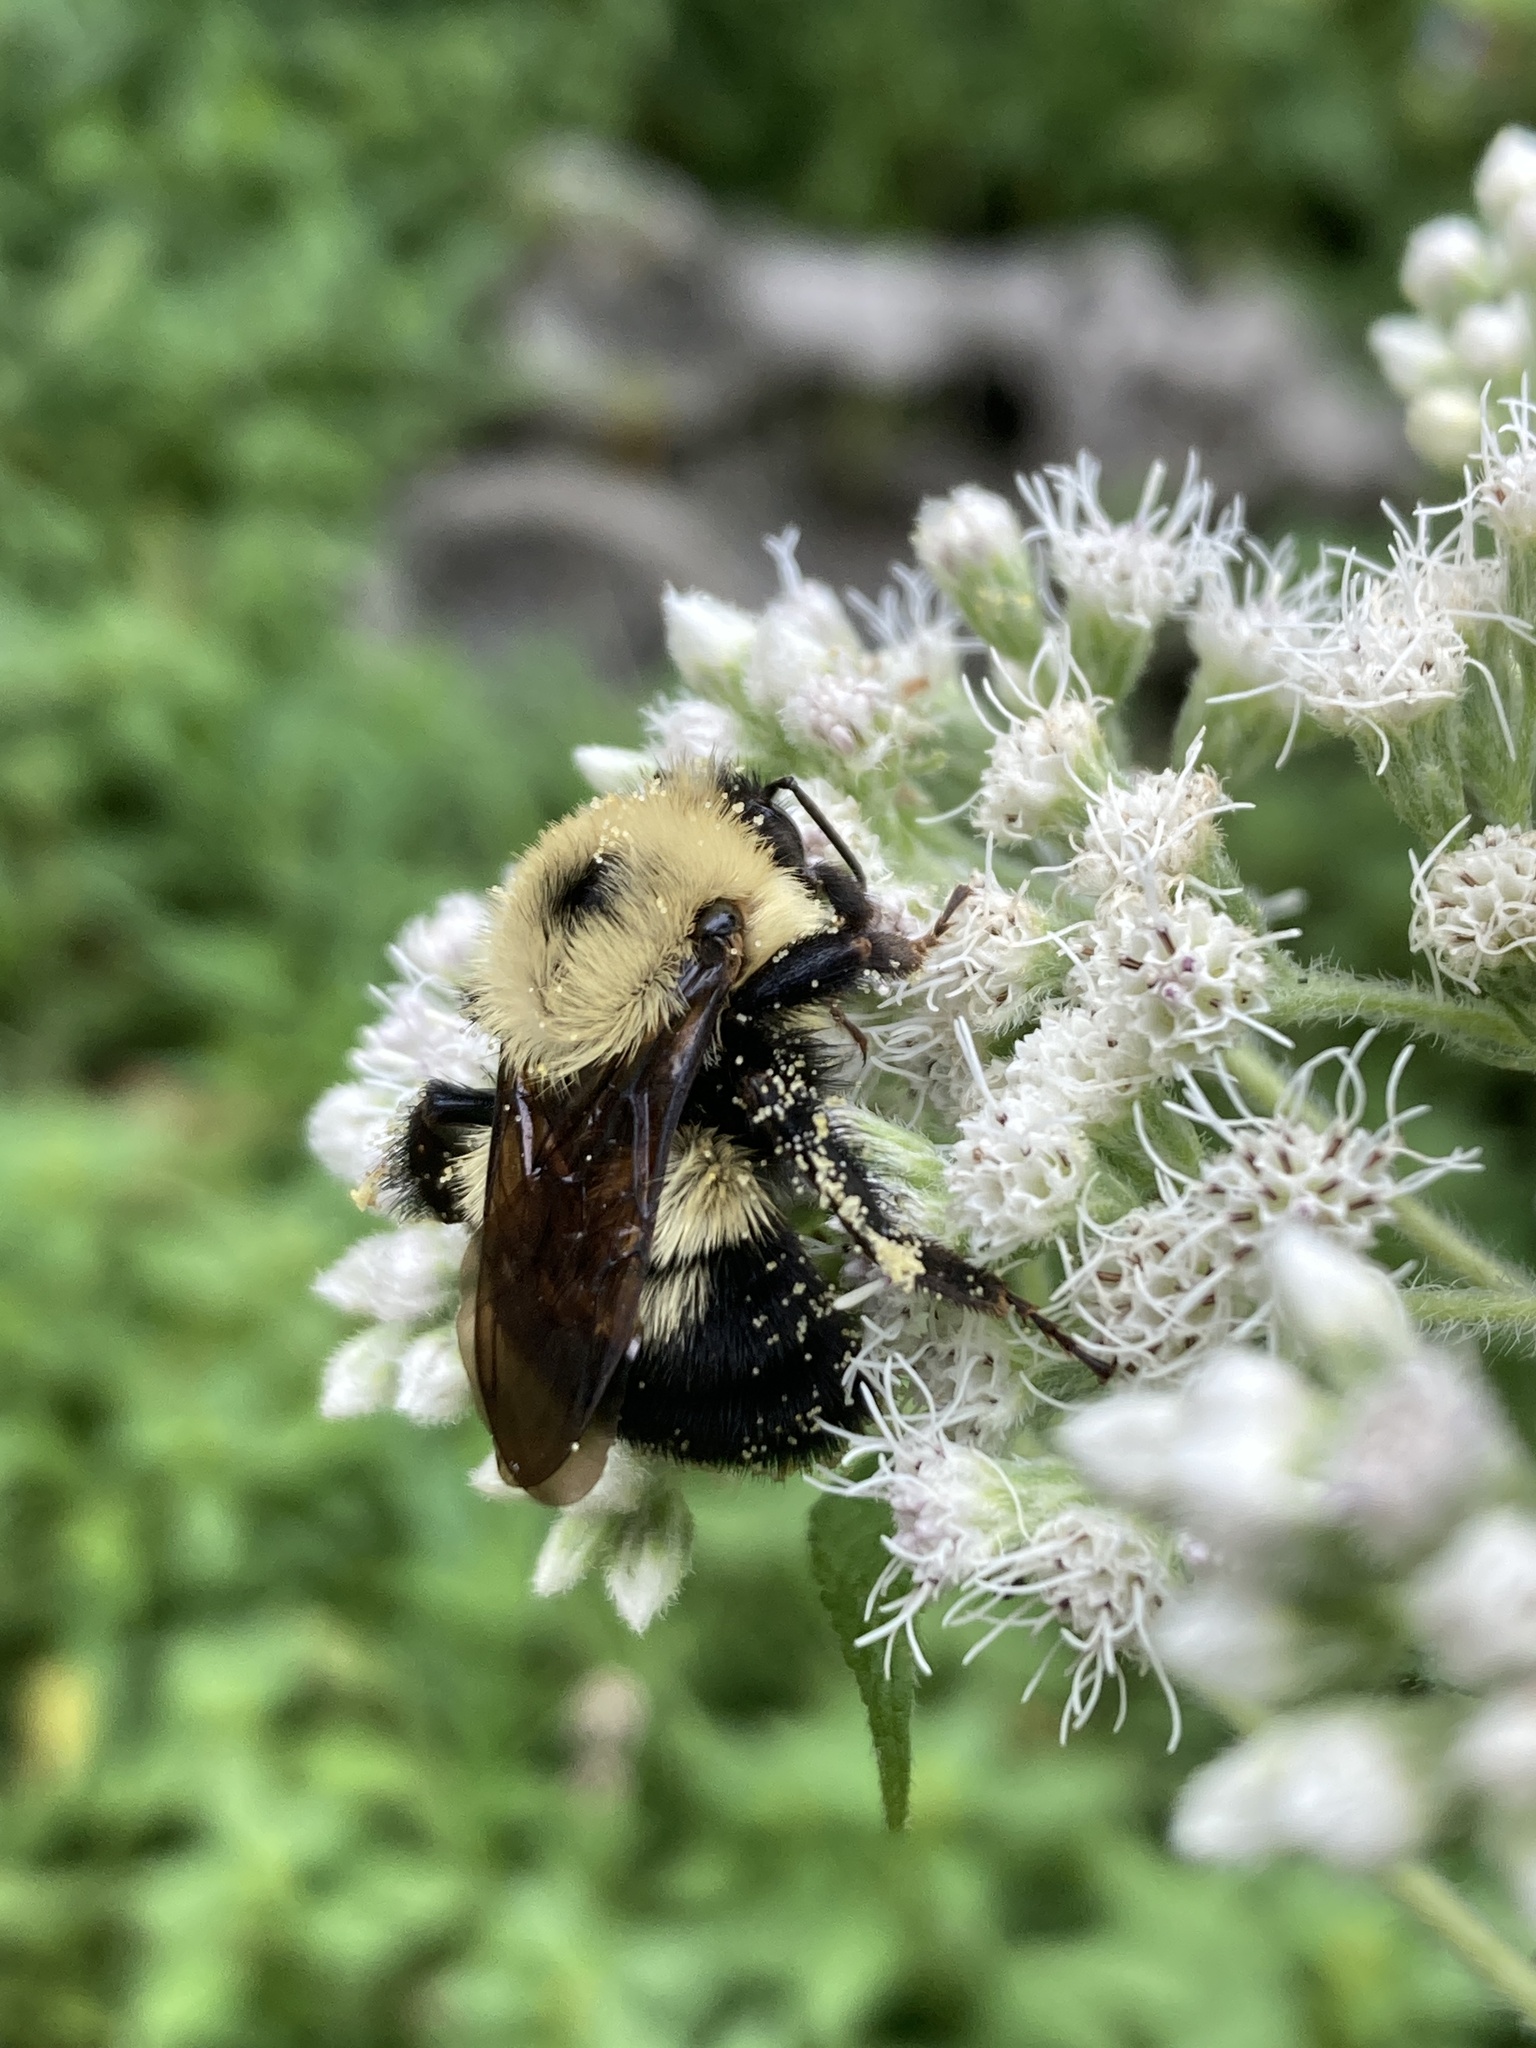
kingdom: Animalia
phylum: Arthropoda
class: Insecta
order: Hymenoptera
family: Apidae
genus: Bombus
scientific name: Bombus bimaculatus
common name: Two-spotted bumble bee
